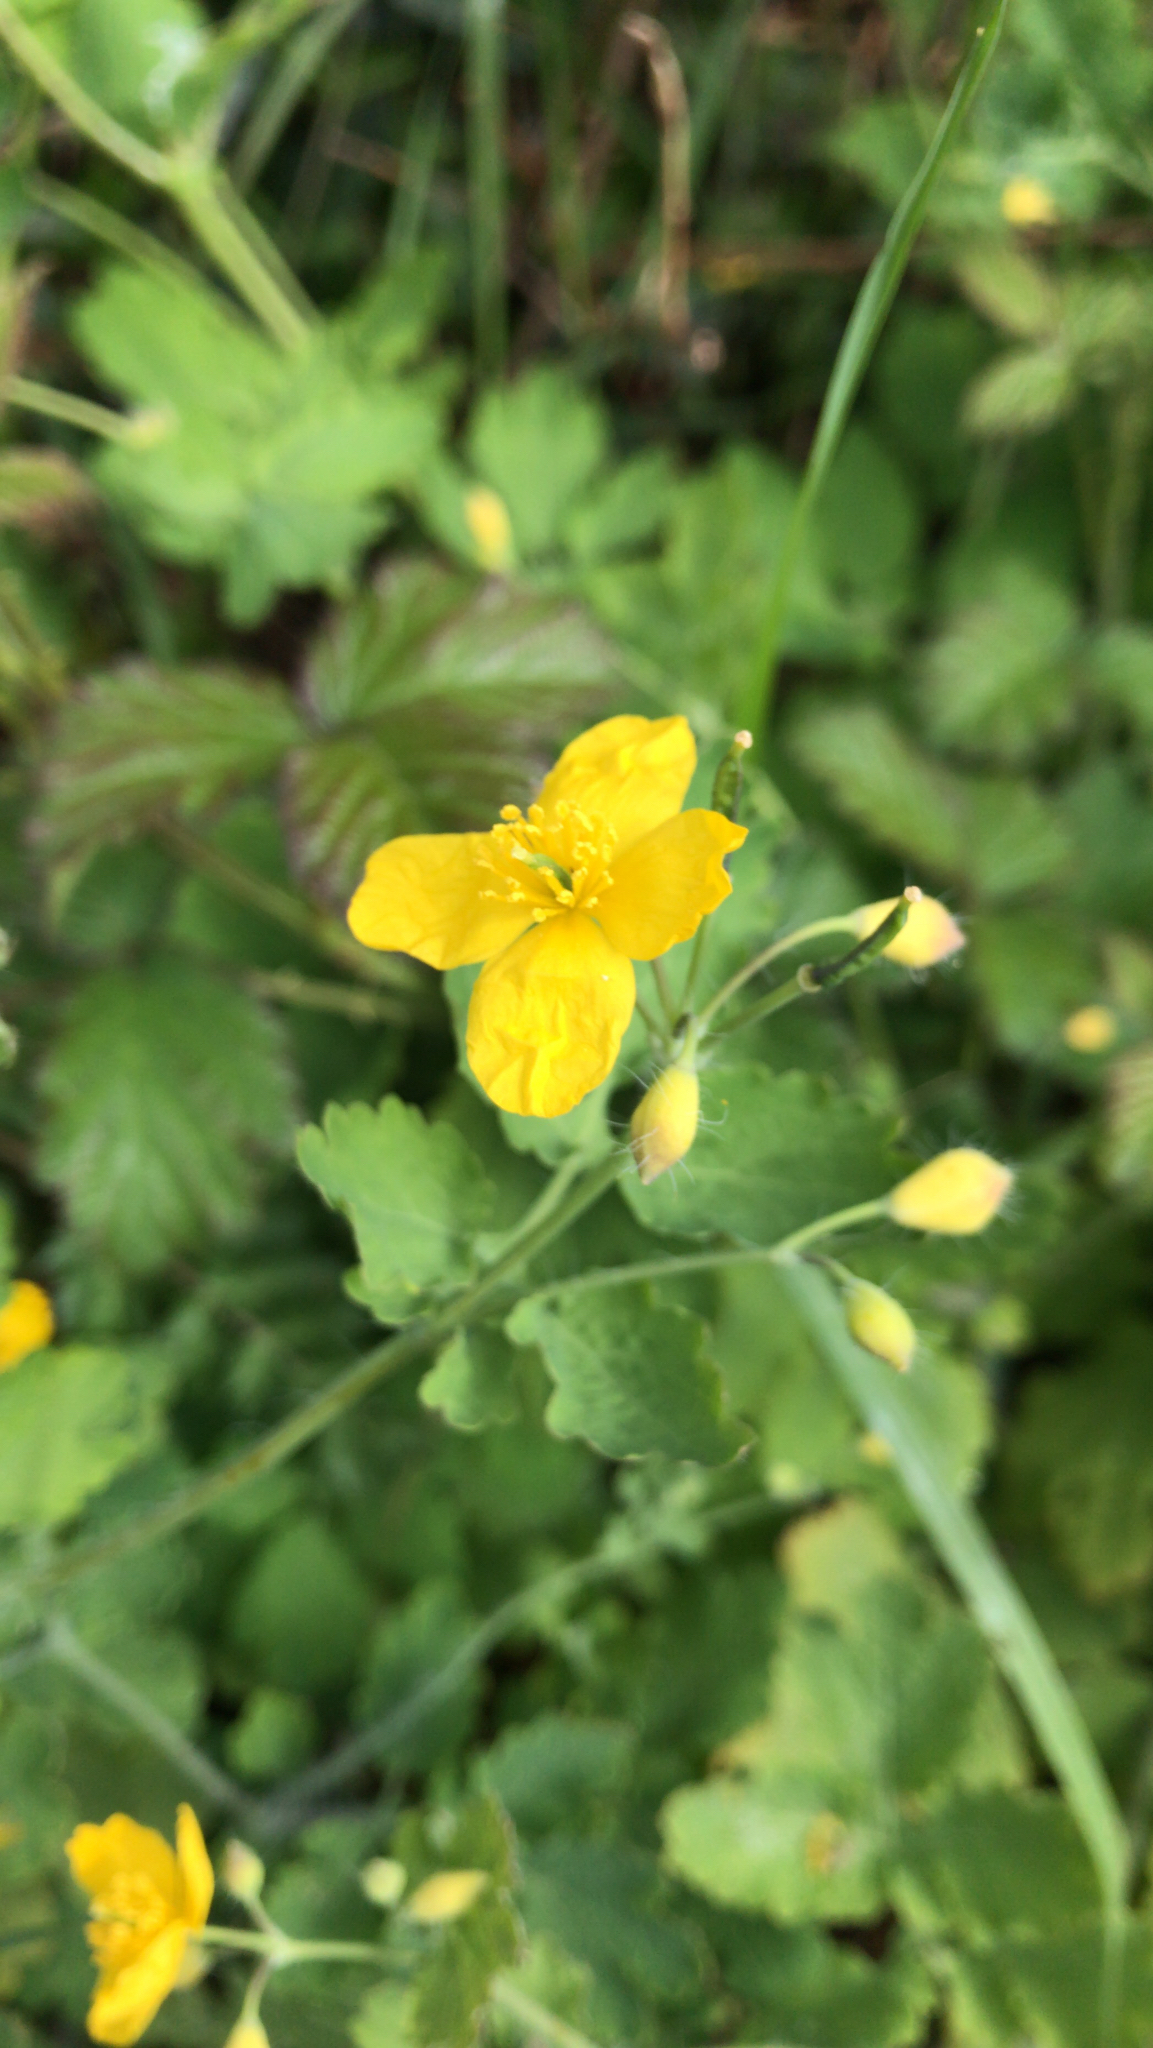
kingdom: Plantae
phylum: Tracheophyta
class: Magnoliopsida
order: Ranunculales
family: Papaveraceae
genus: Chelidonium
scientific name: Chelidonium majus
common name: Greater celandine
